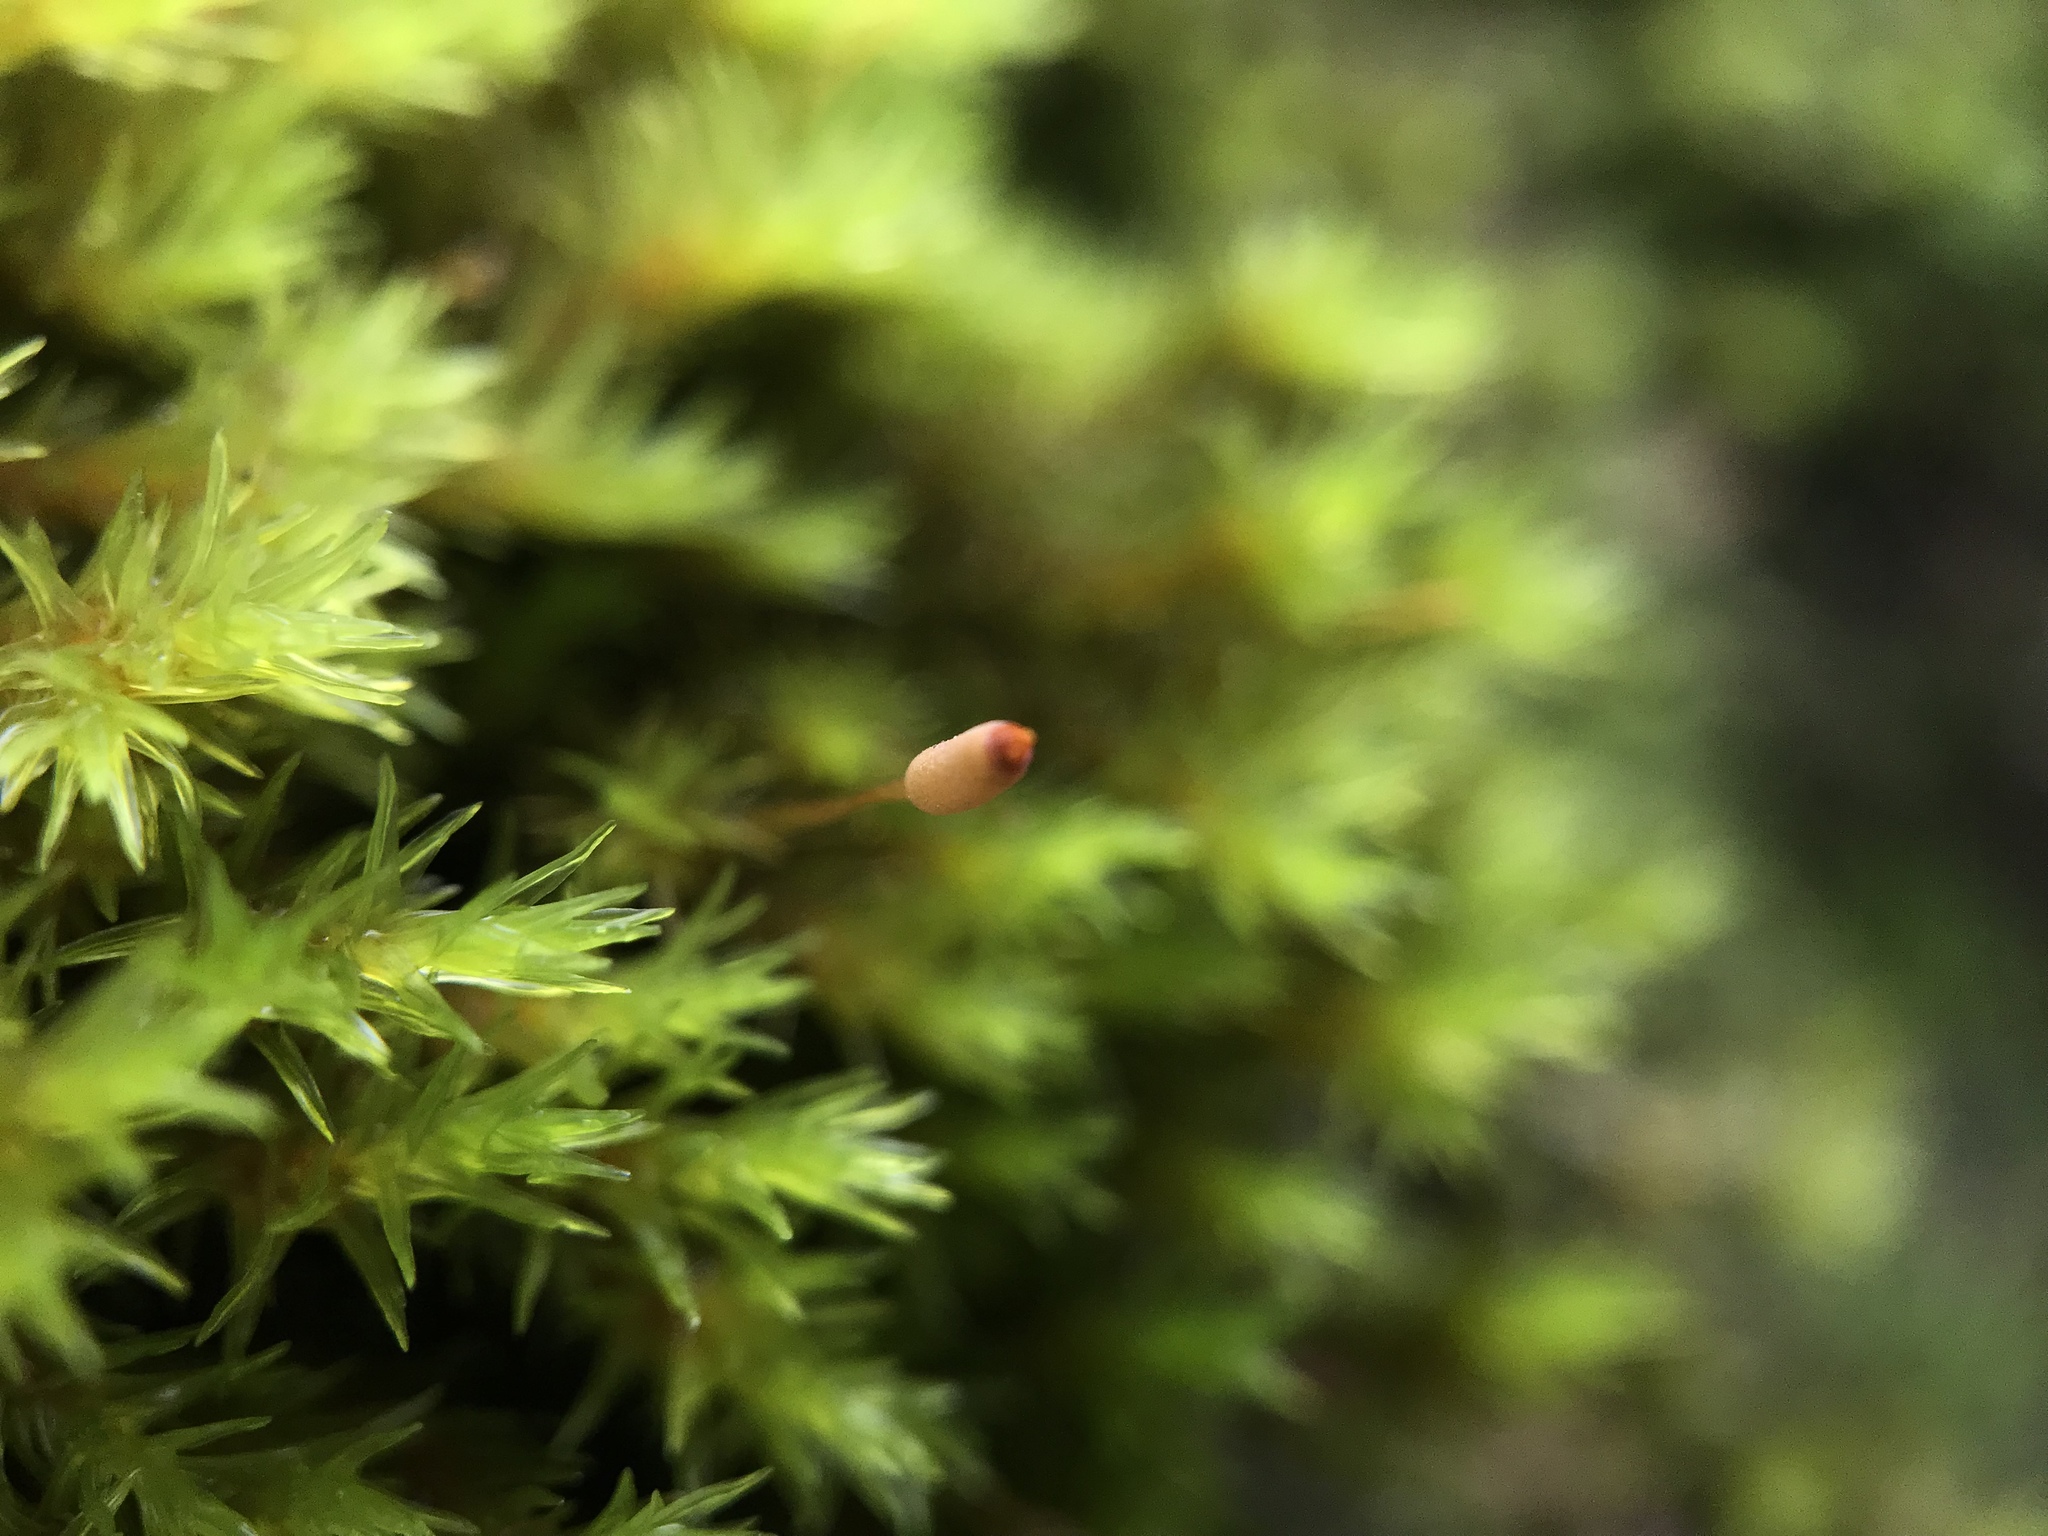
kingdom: Plantae
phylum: Bryophyta
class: Bryopsida
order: Grimmiales
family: Grimmiaceae
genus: Codriophorus
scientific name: Codriophorus aquaticus
